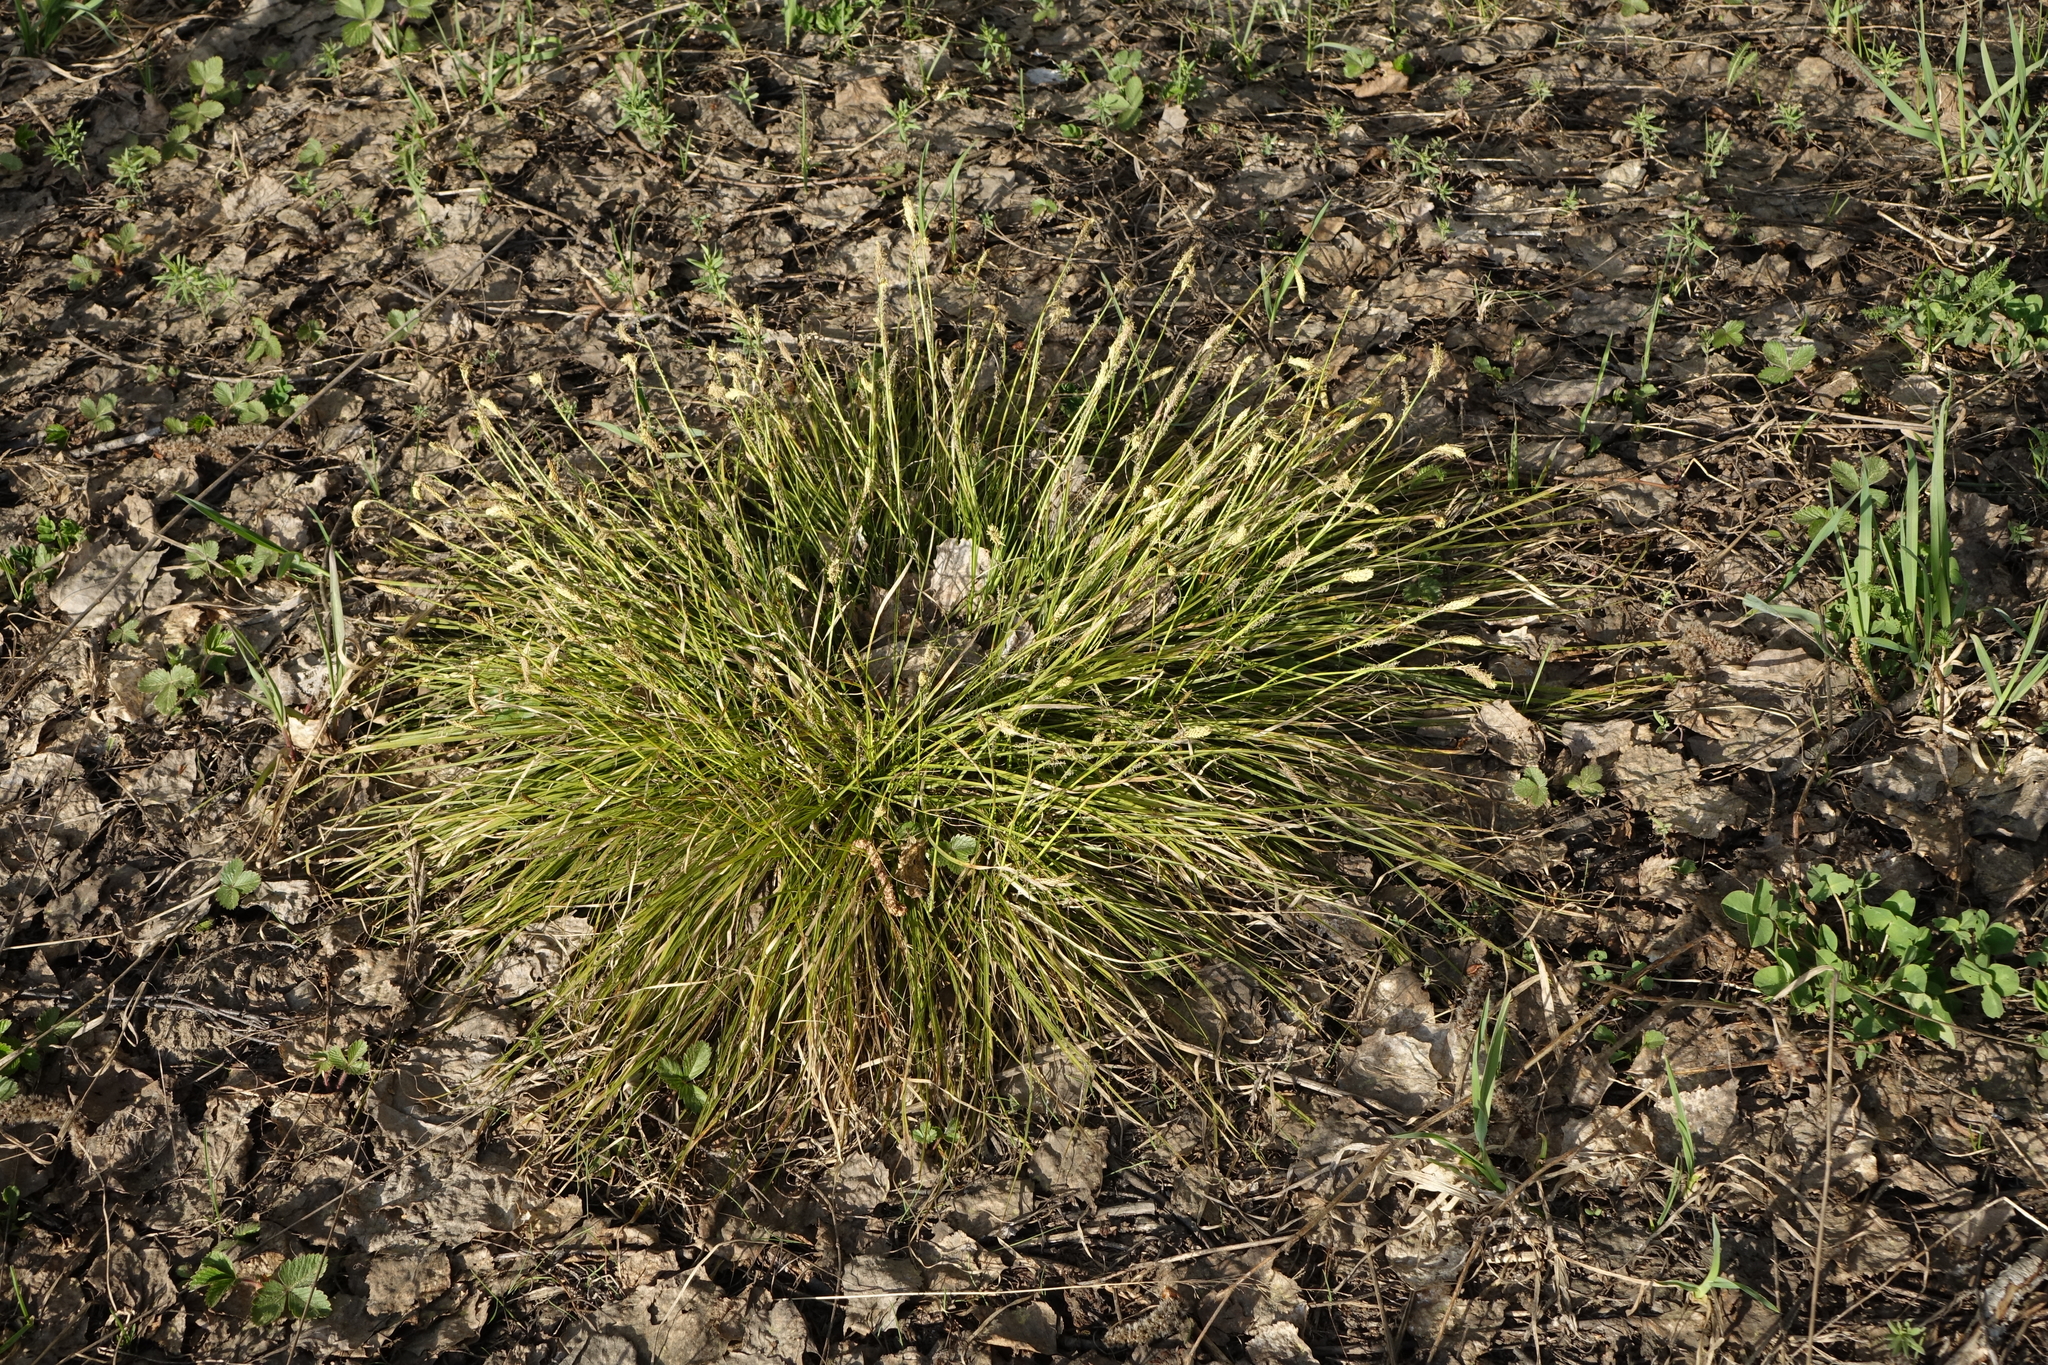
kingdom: Plantae
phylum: Tracheophyta
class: Liliopsida
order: Poales
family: Cyperaceae
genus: Carex
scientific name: Carex pediformis
